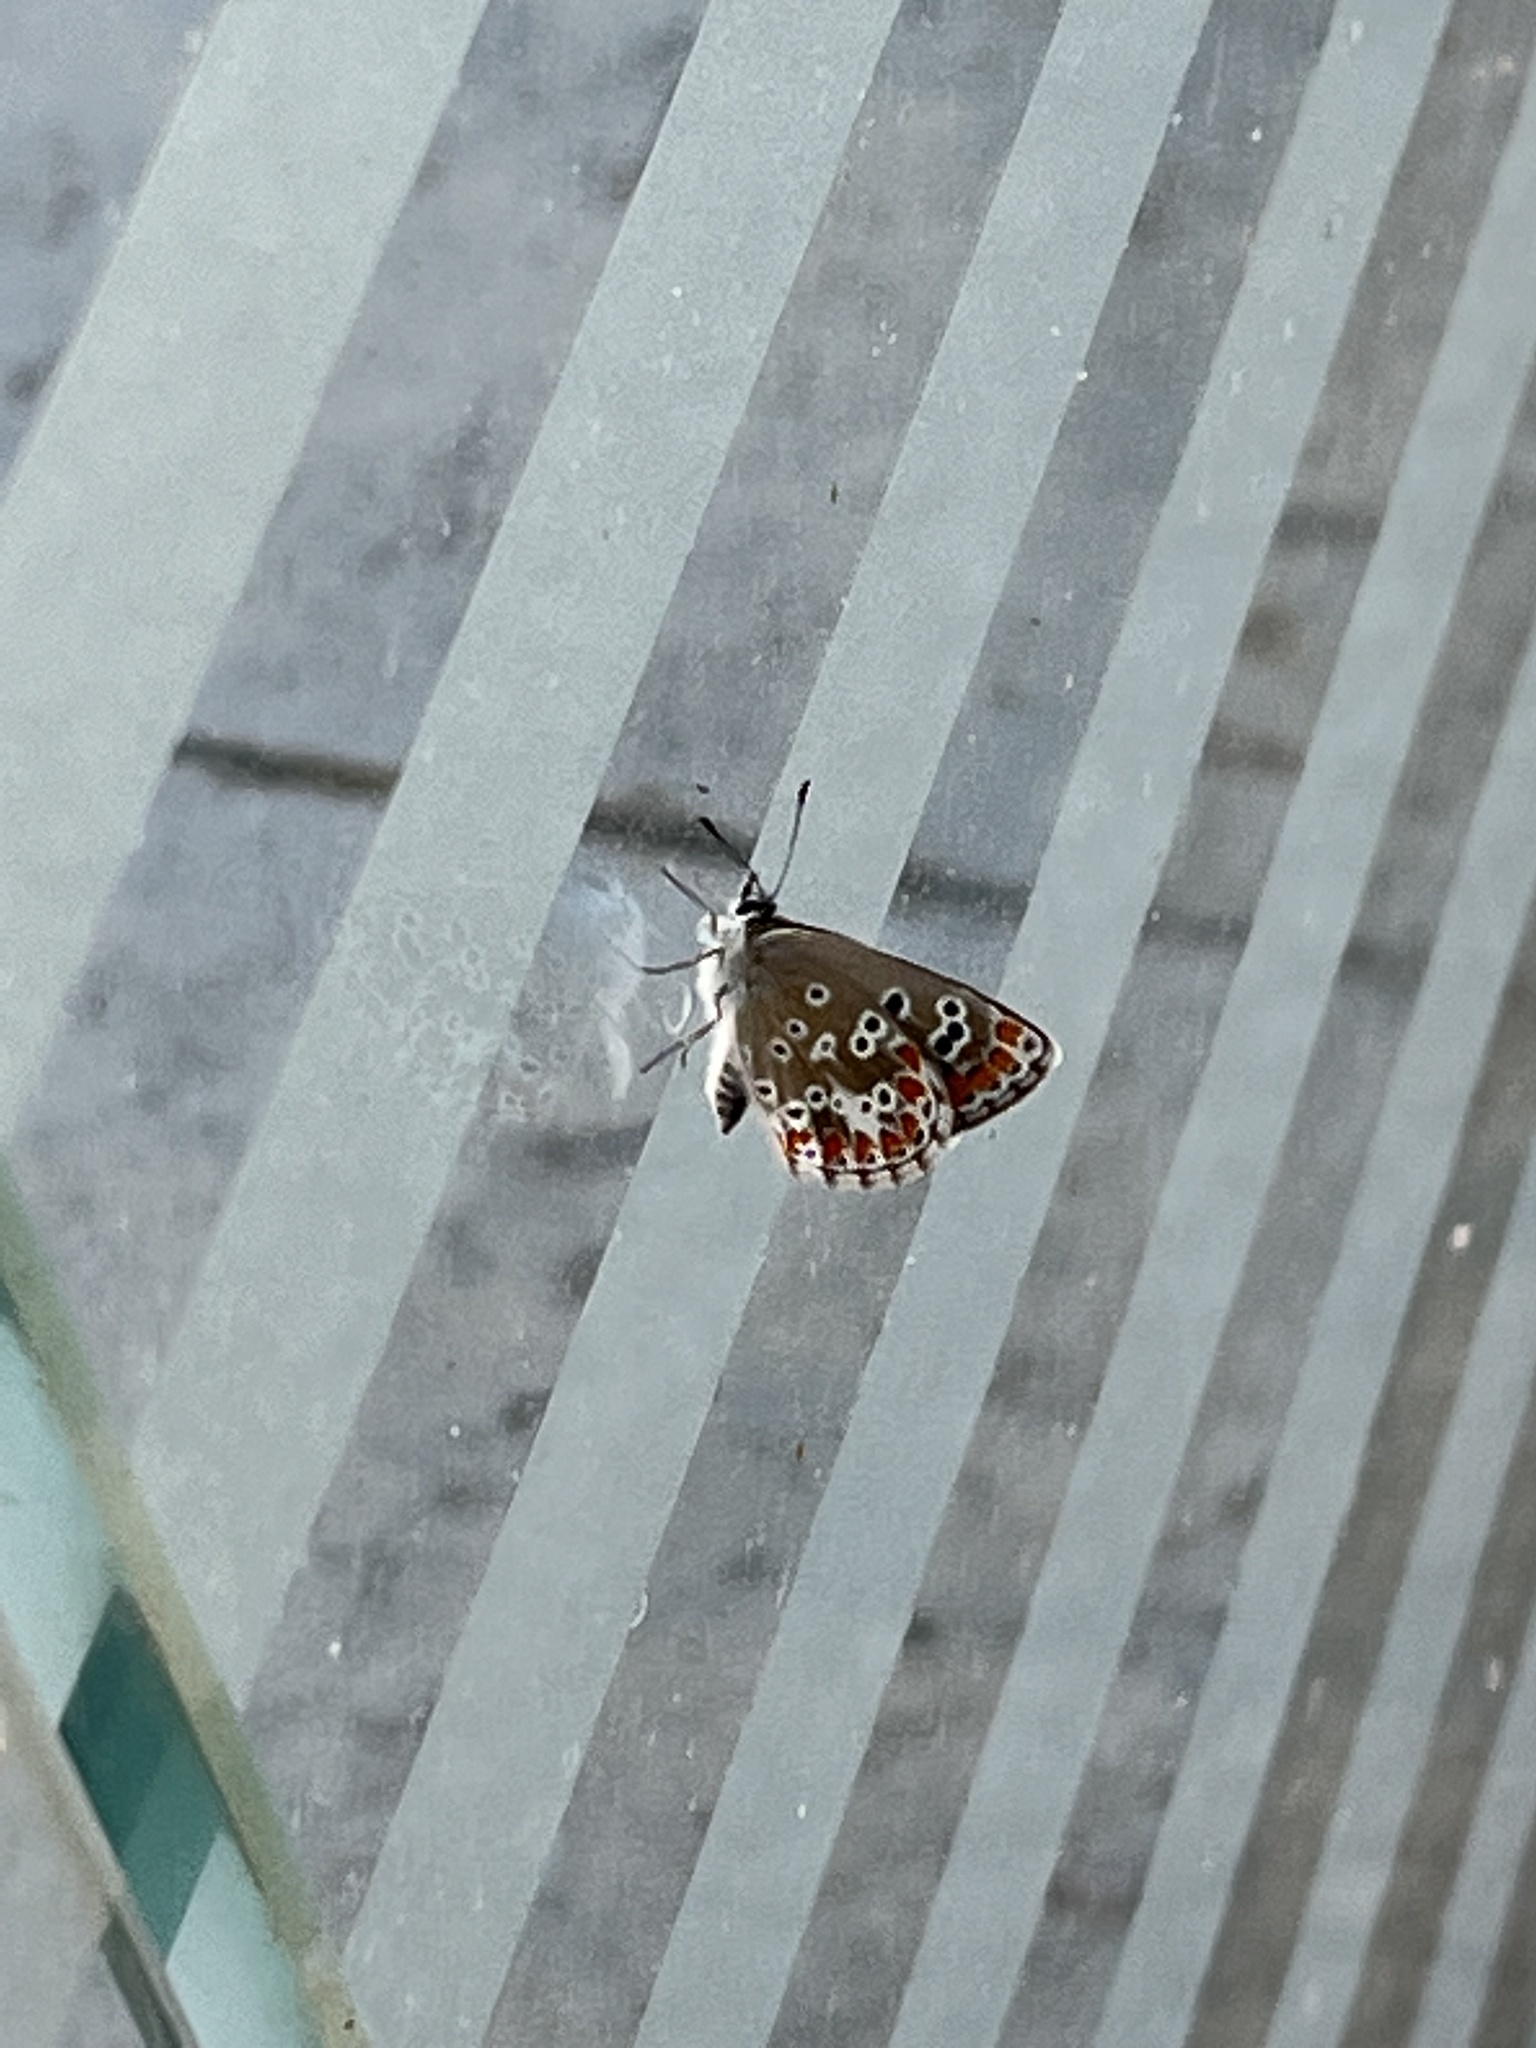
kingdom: Animalia
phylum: Arthropoda
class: Insecta
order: Lepidoptera
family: Lycaenidae
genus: Aricia
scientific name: Aricia cramera
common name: Eschscholtz´s brown  argus
